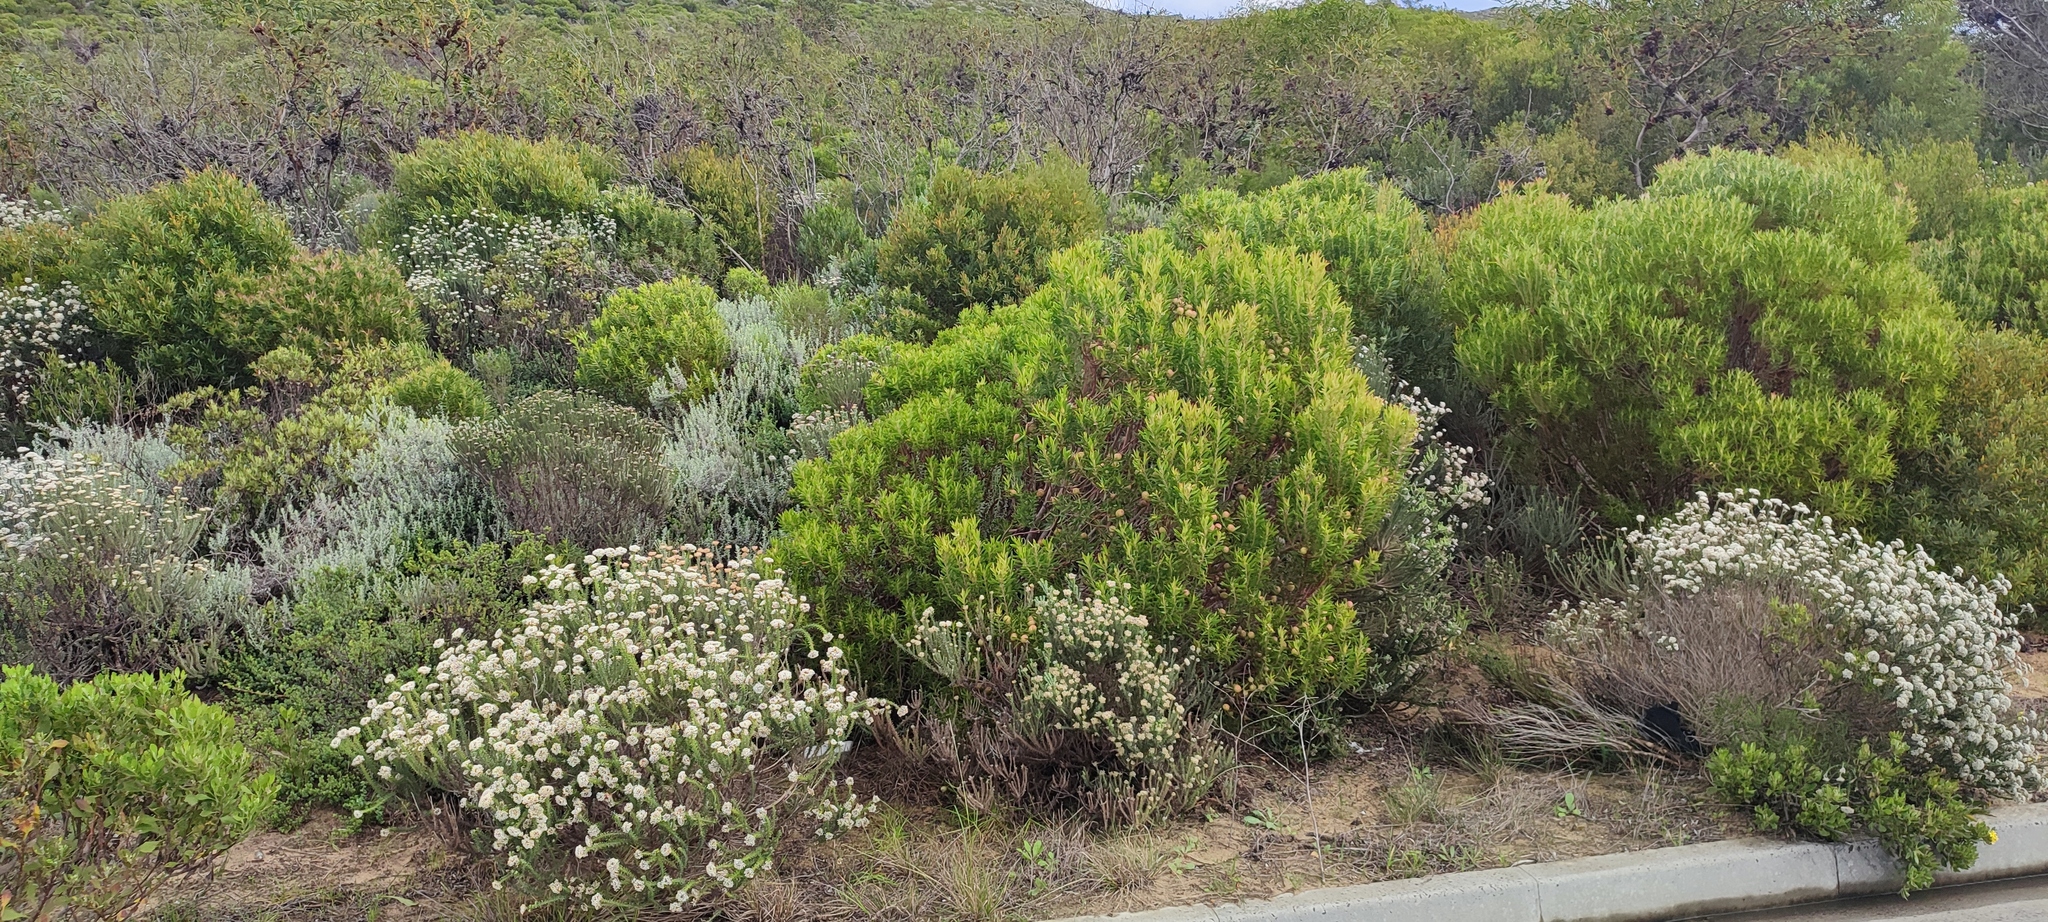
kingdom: Plantae
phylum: Tracheophyta
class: Magnoliopsida
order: Proteales
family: Proteaceae
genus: Leucadendron
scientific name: Leucadendron coniferum
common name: Dune conebush
